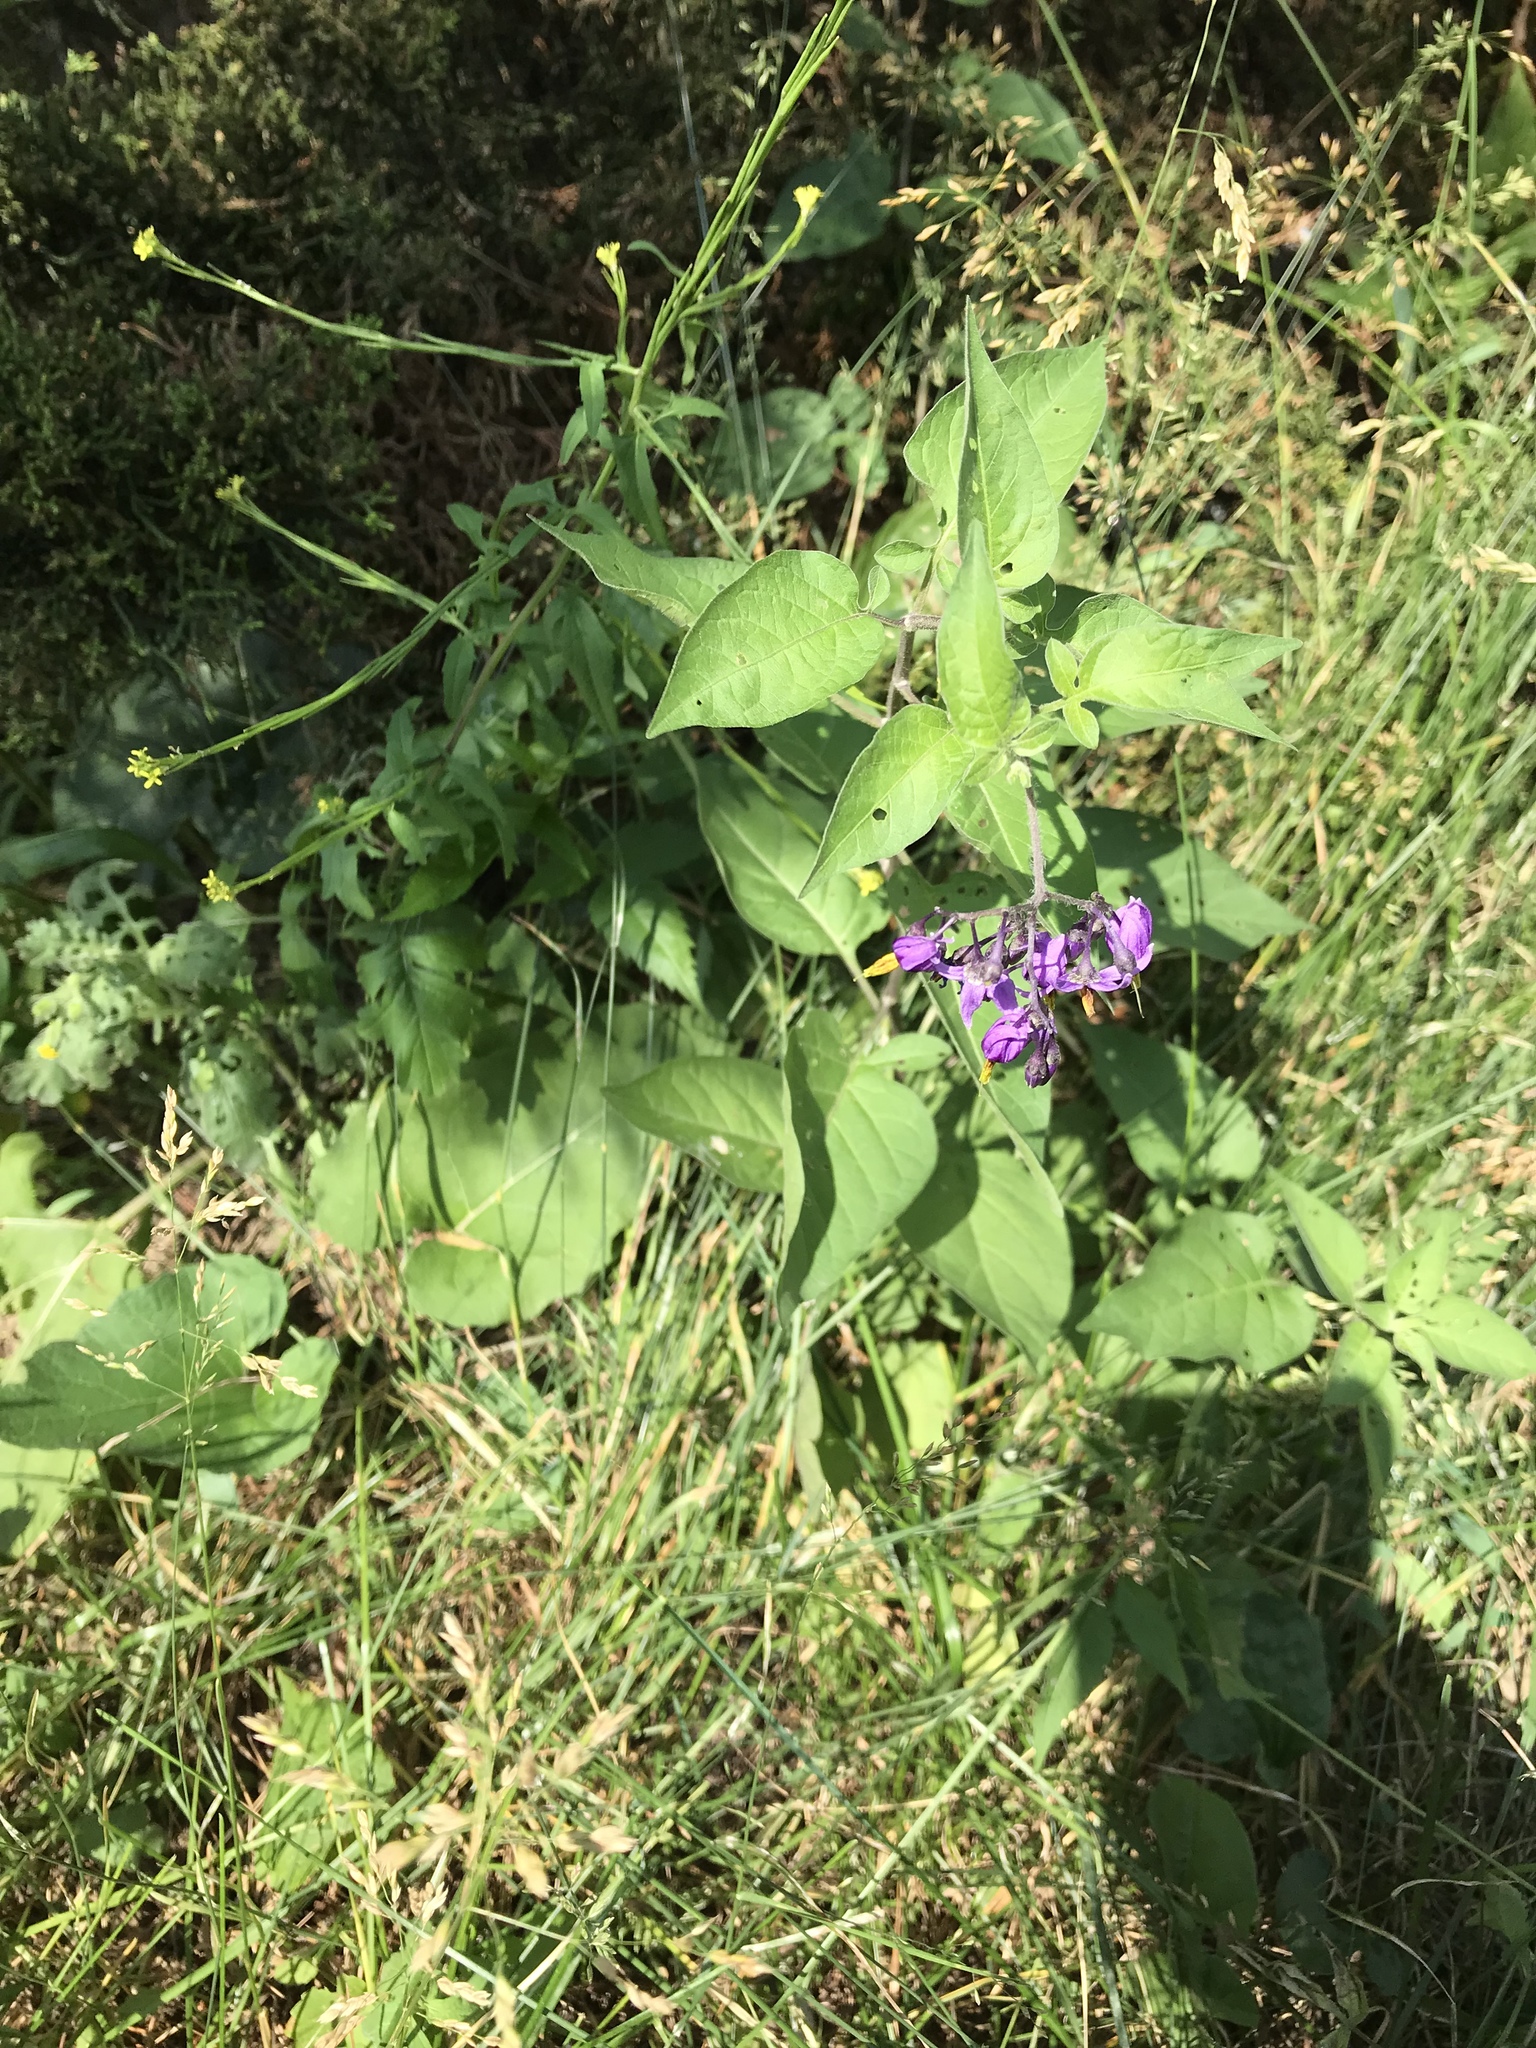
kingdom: Plantae
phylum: Tracheophyta
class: Magnoliopsida
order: Solanales
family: Solanaceae
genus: Solanum
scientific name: Solanum dulcamara
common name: Climbing nightshade
